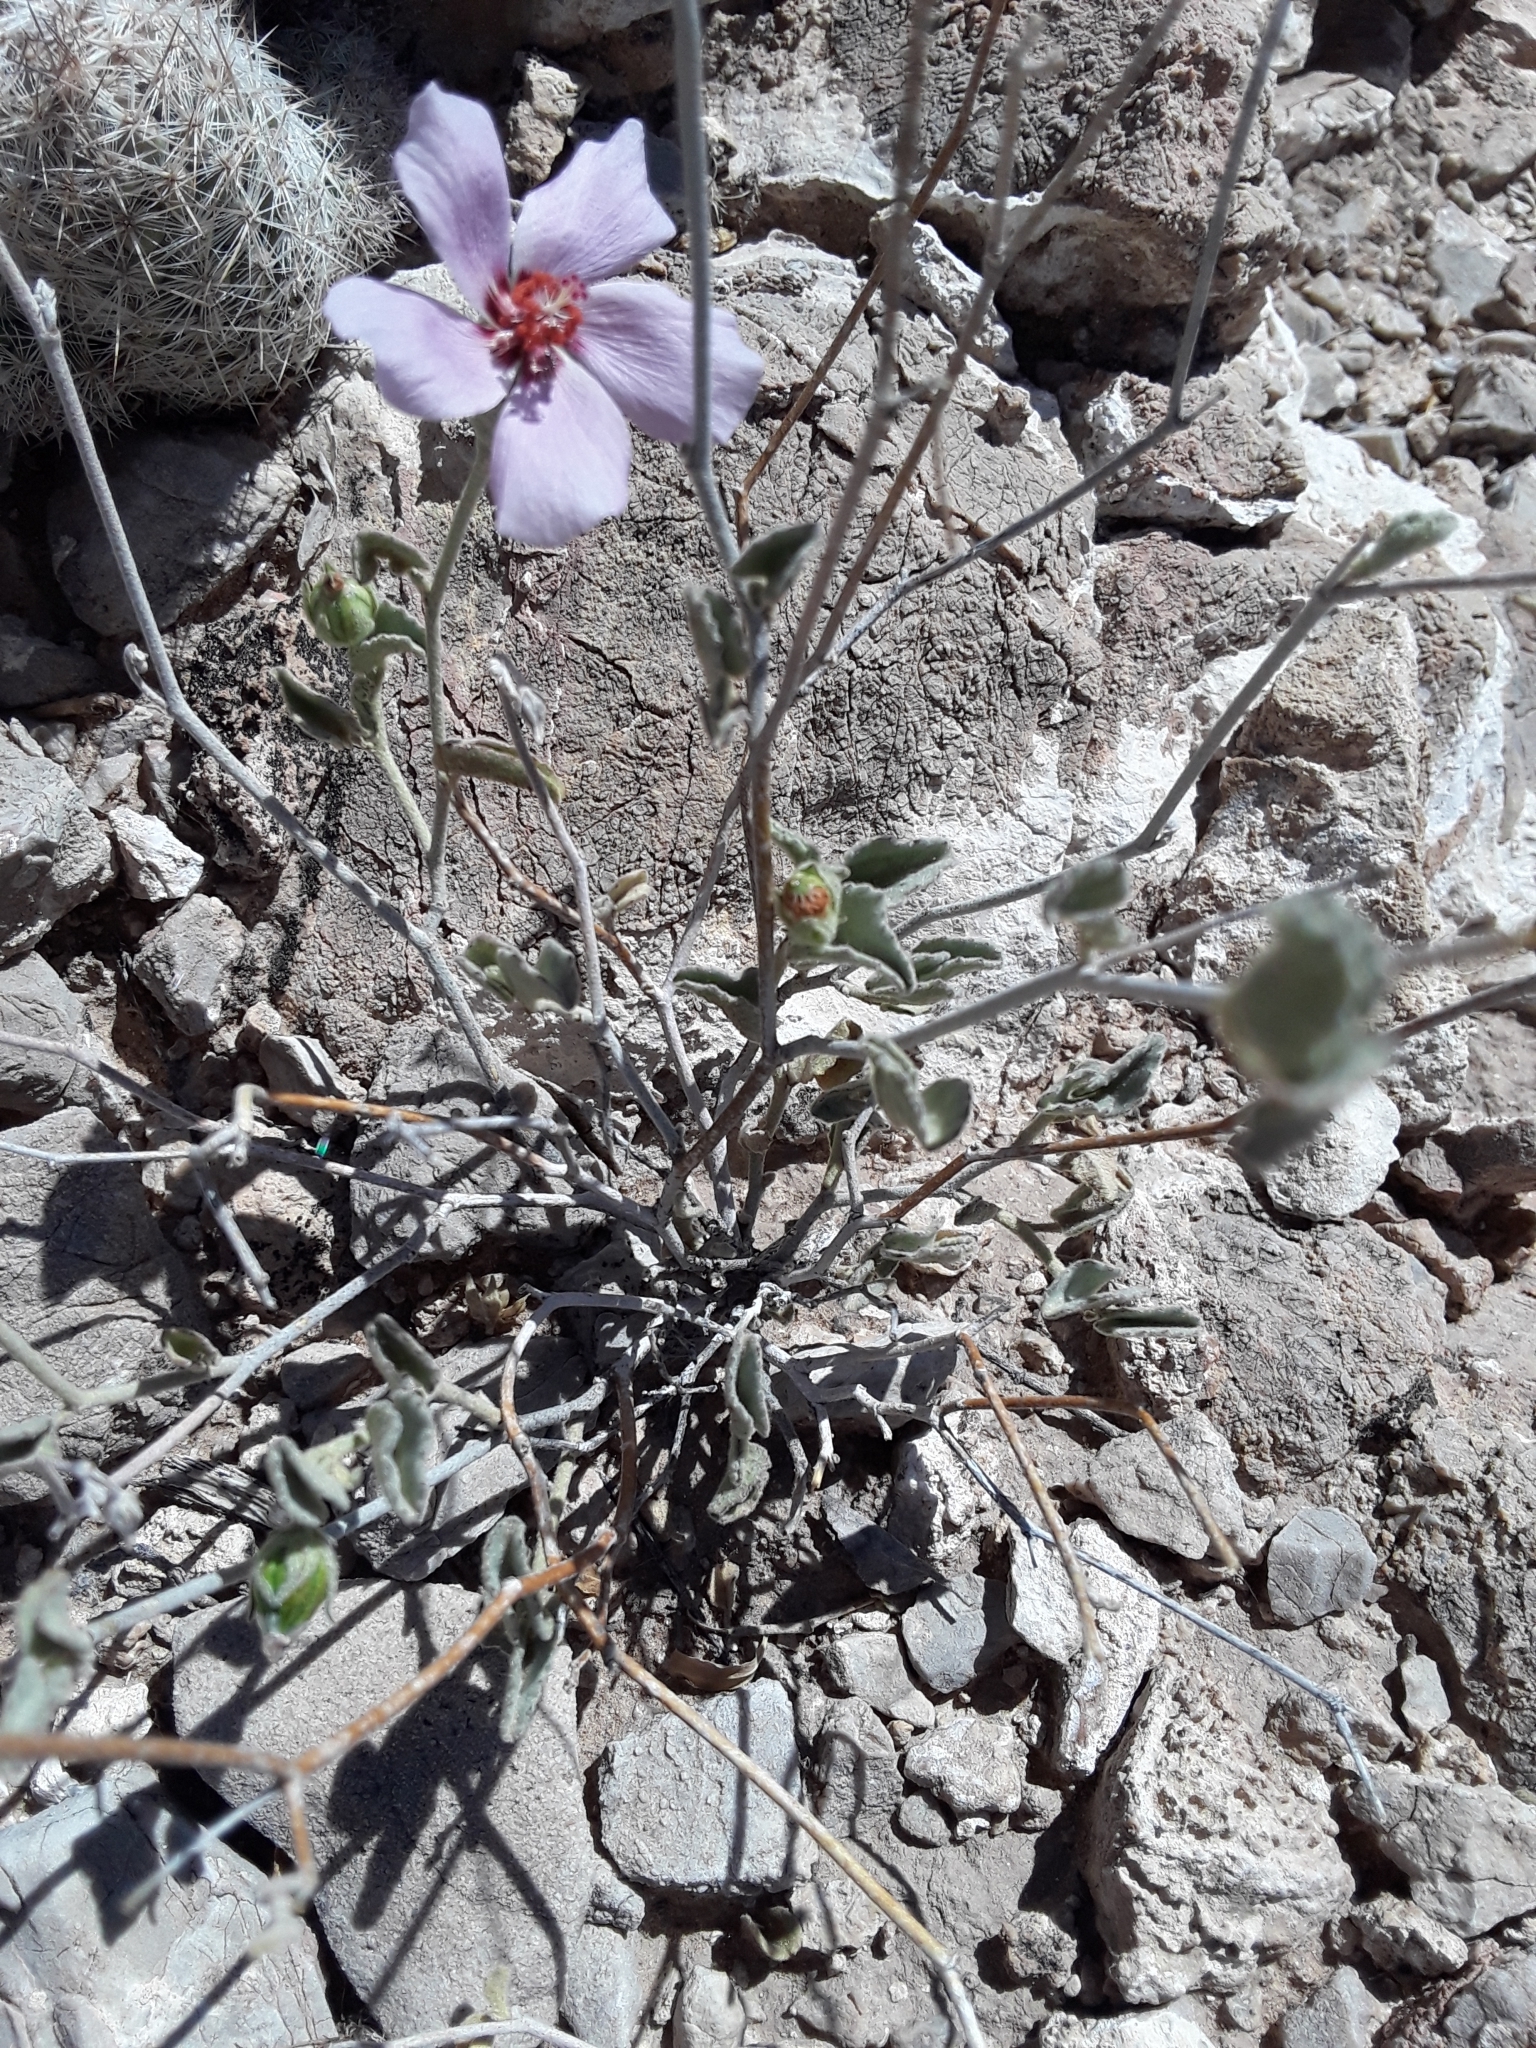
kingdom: Plantae
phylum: Tracheophyta
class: Magnoliopsida
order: Malvales
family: Malvaceae
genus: Hibiscus
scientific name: Hibiscus denudatus
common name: Paleface
